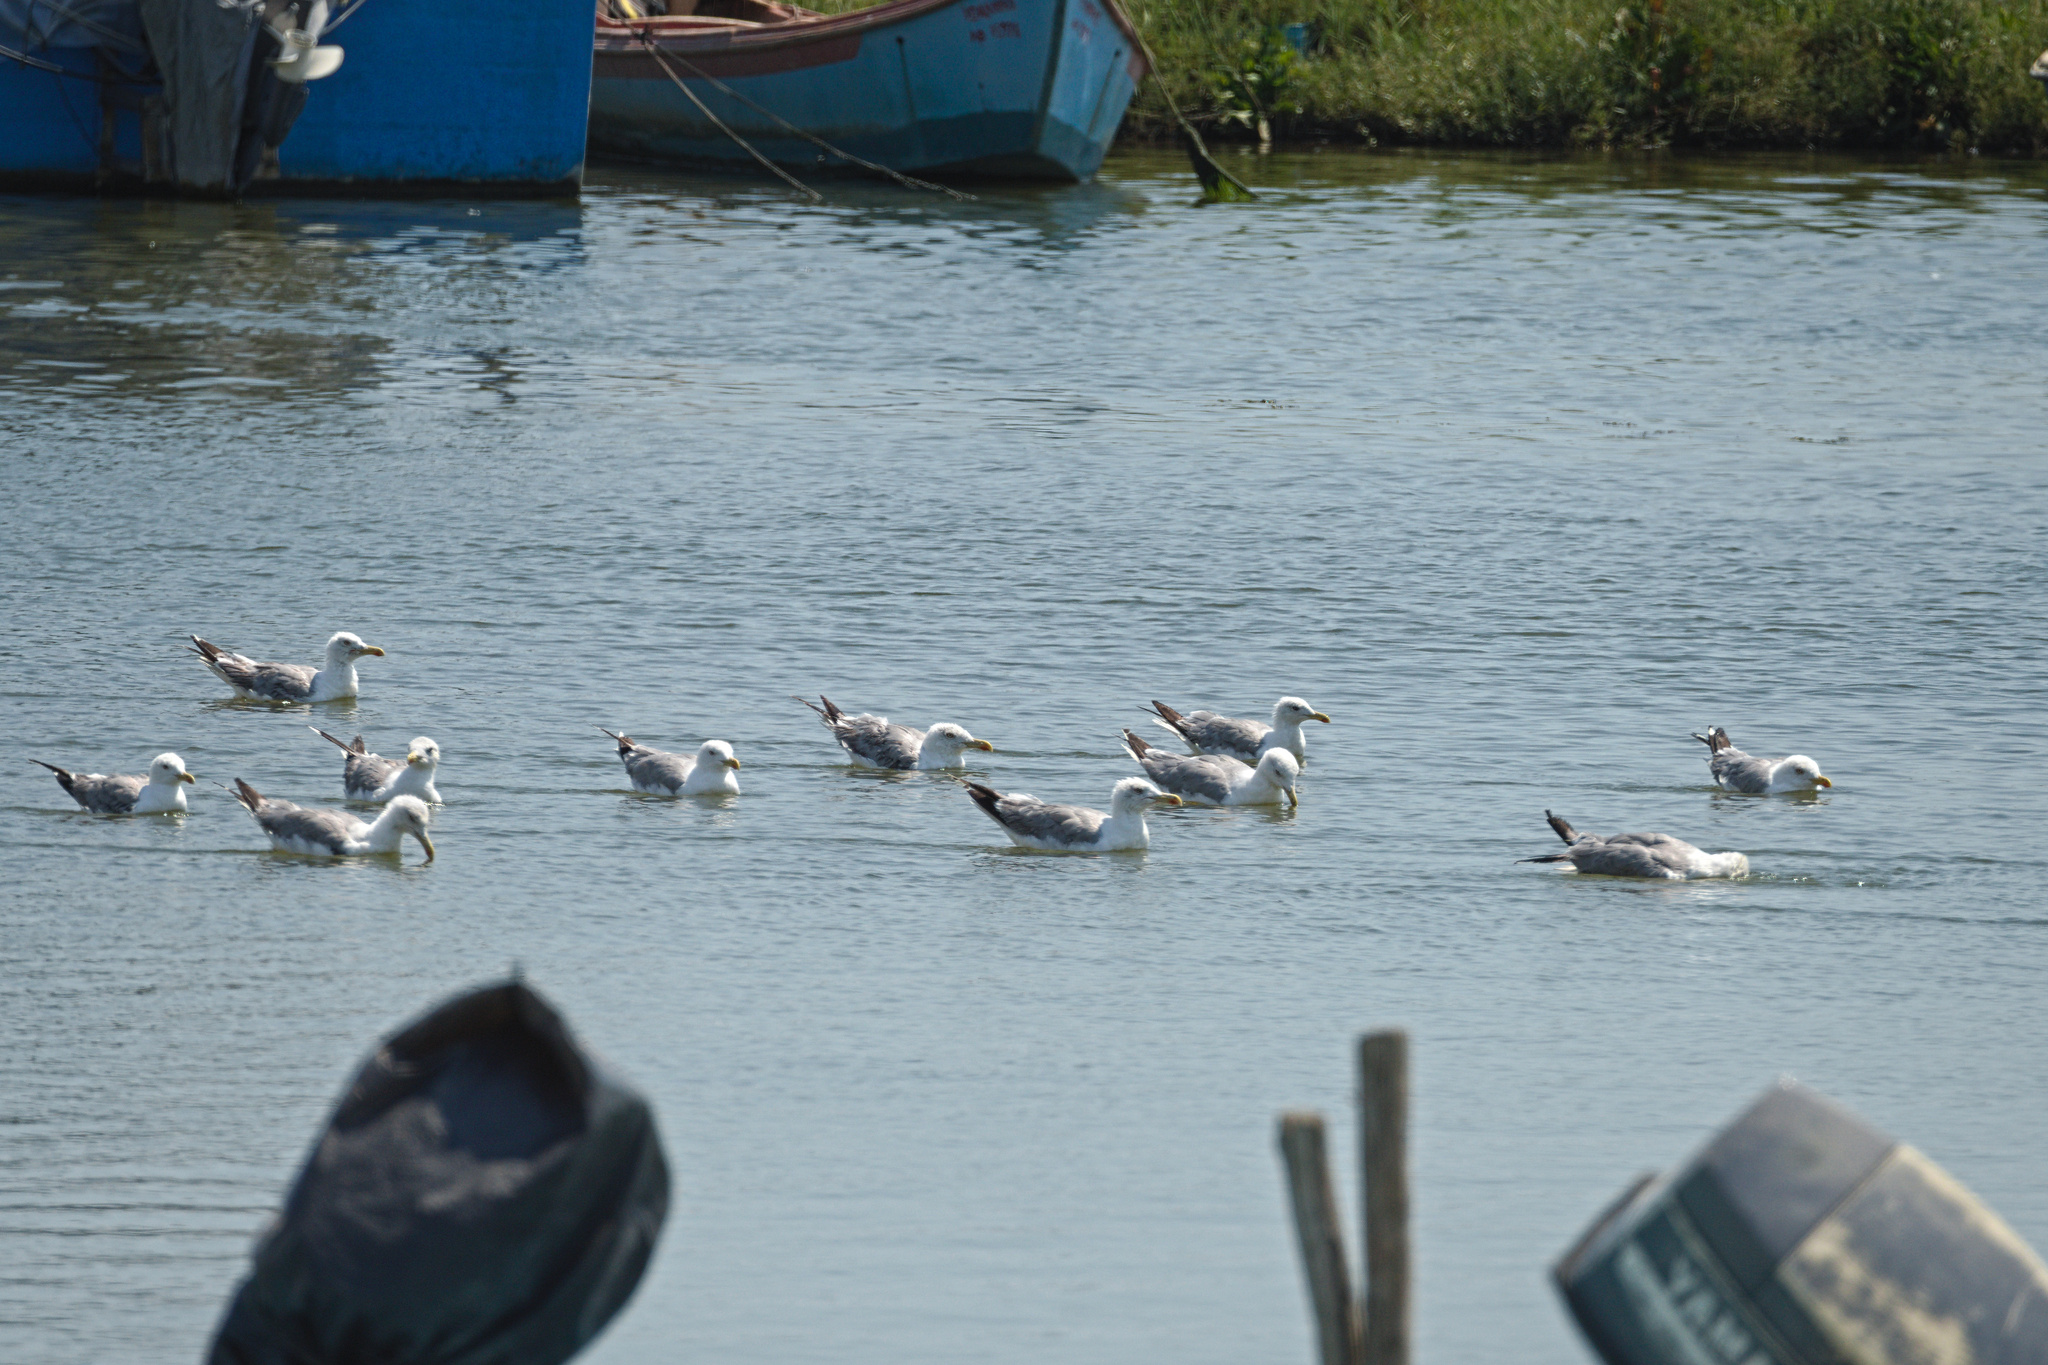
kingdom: Animalia
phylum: Chordata
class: Aves
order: Charadriiformes
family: Laridae
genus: Larus
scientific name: Larus michahellis
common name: Yellow-legged gull
